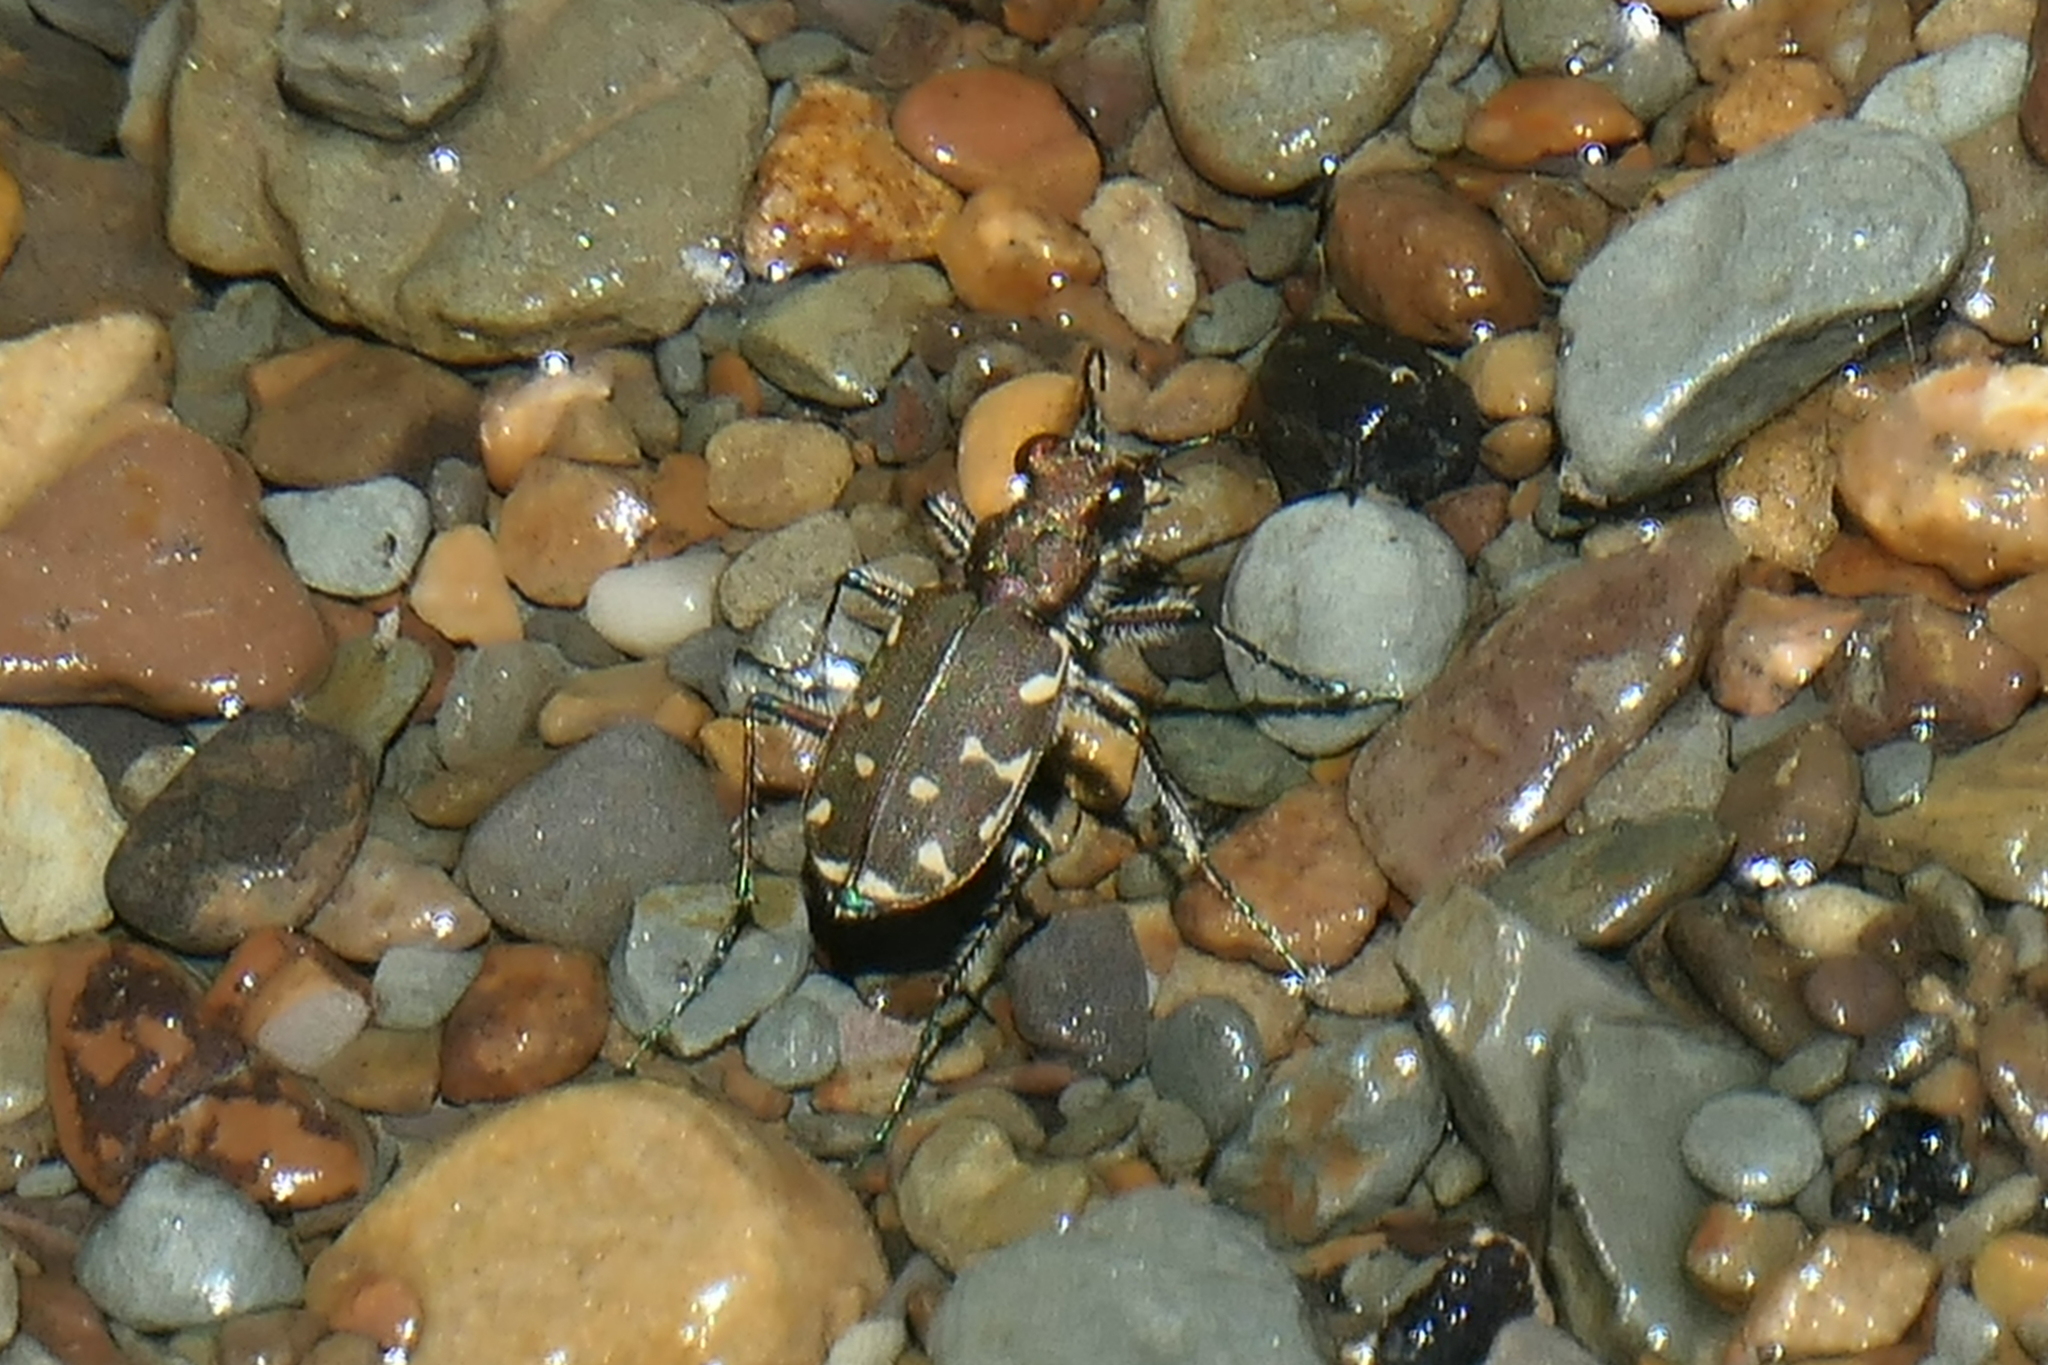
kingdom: Animalia
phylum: Arthropoda
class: Insecta
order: Coleoptera
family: Carabidae
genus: Cicindela
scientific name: Cicindela duodecimguttata
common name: Twelve-spotted tiger beetle
